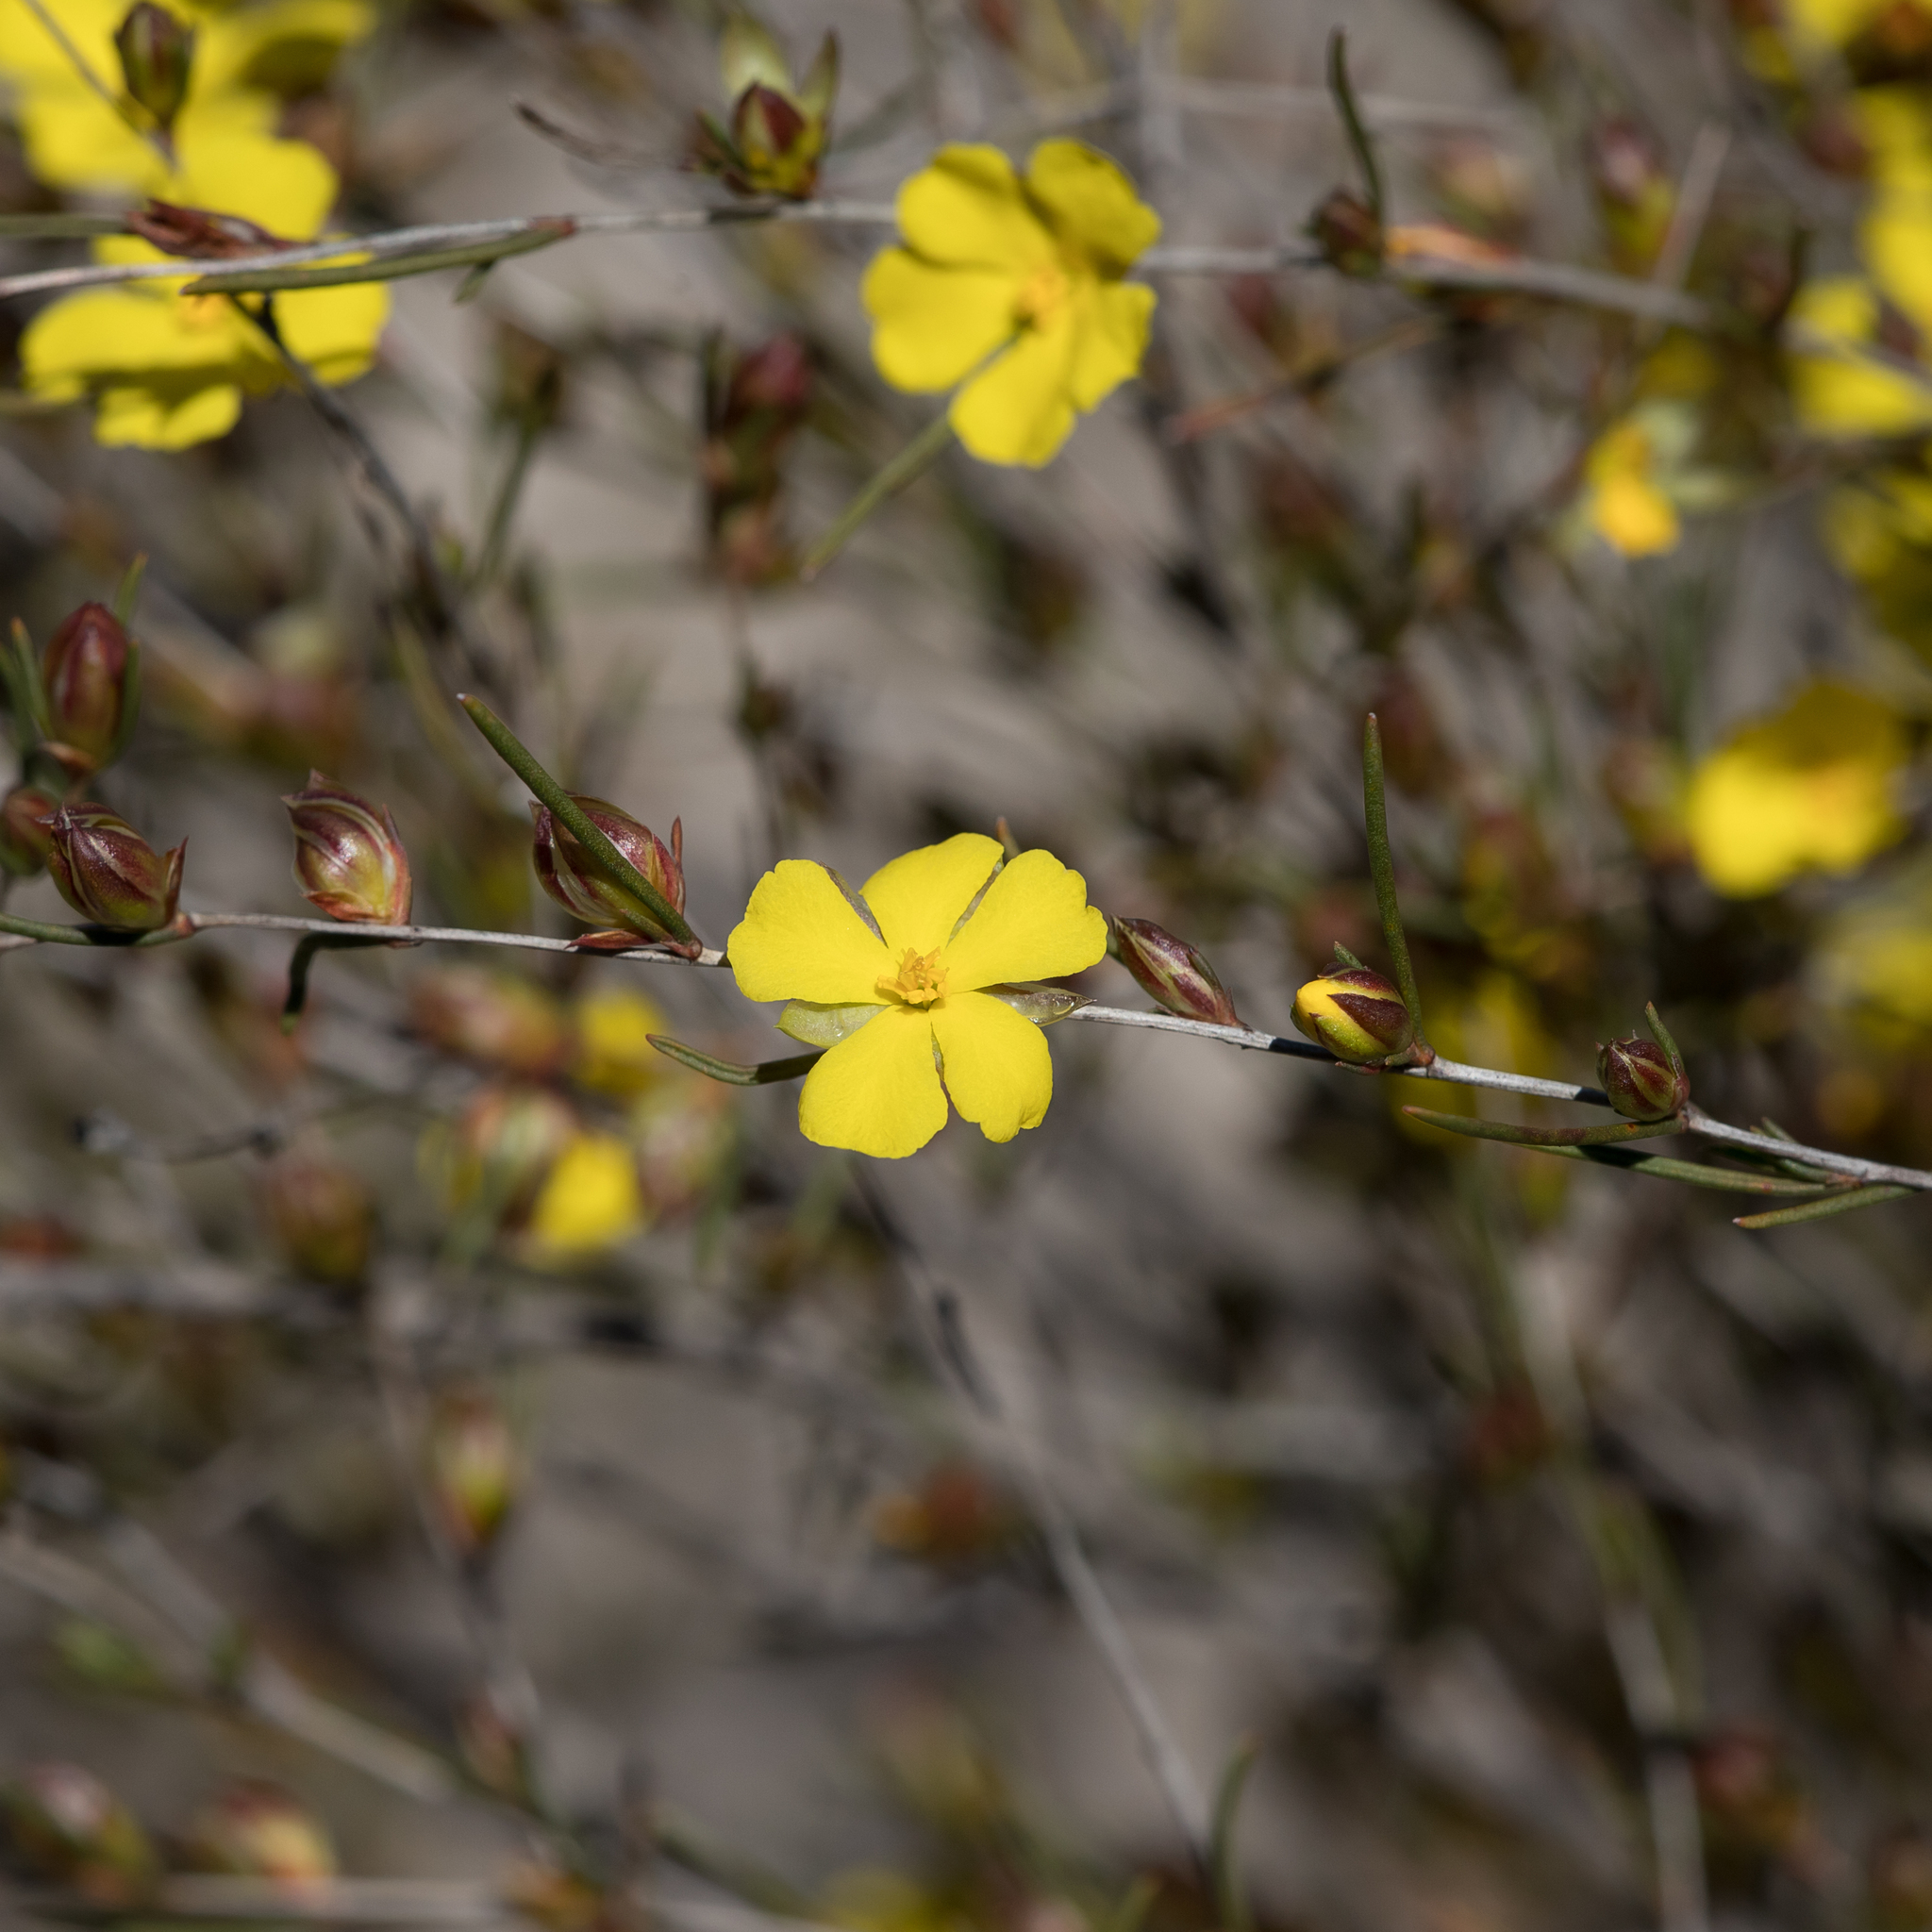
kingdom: Plantae
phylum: Tracheophyta
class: Magnoliopsida
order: Dilleniales
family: Dilleniaceae
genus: Hibbertia
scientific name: Hibbertia virgata
